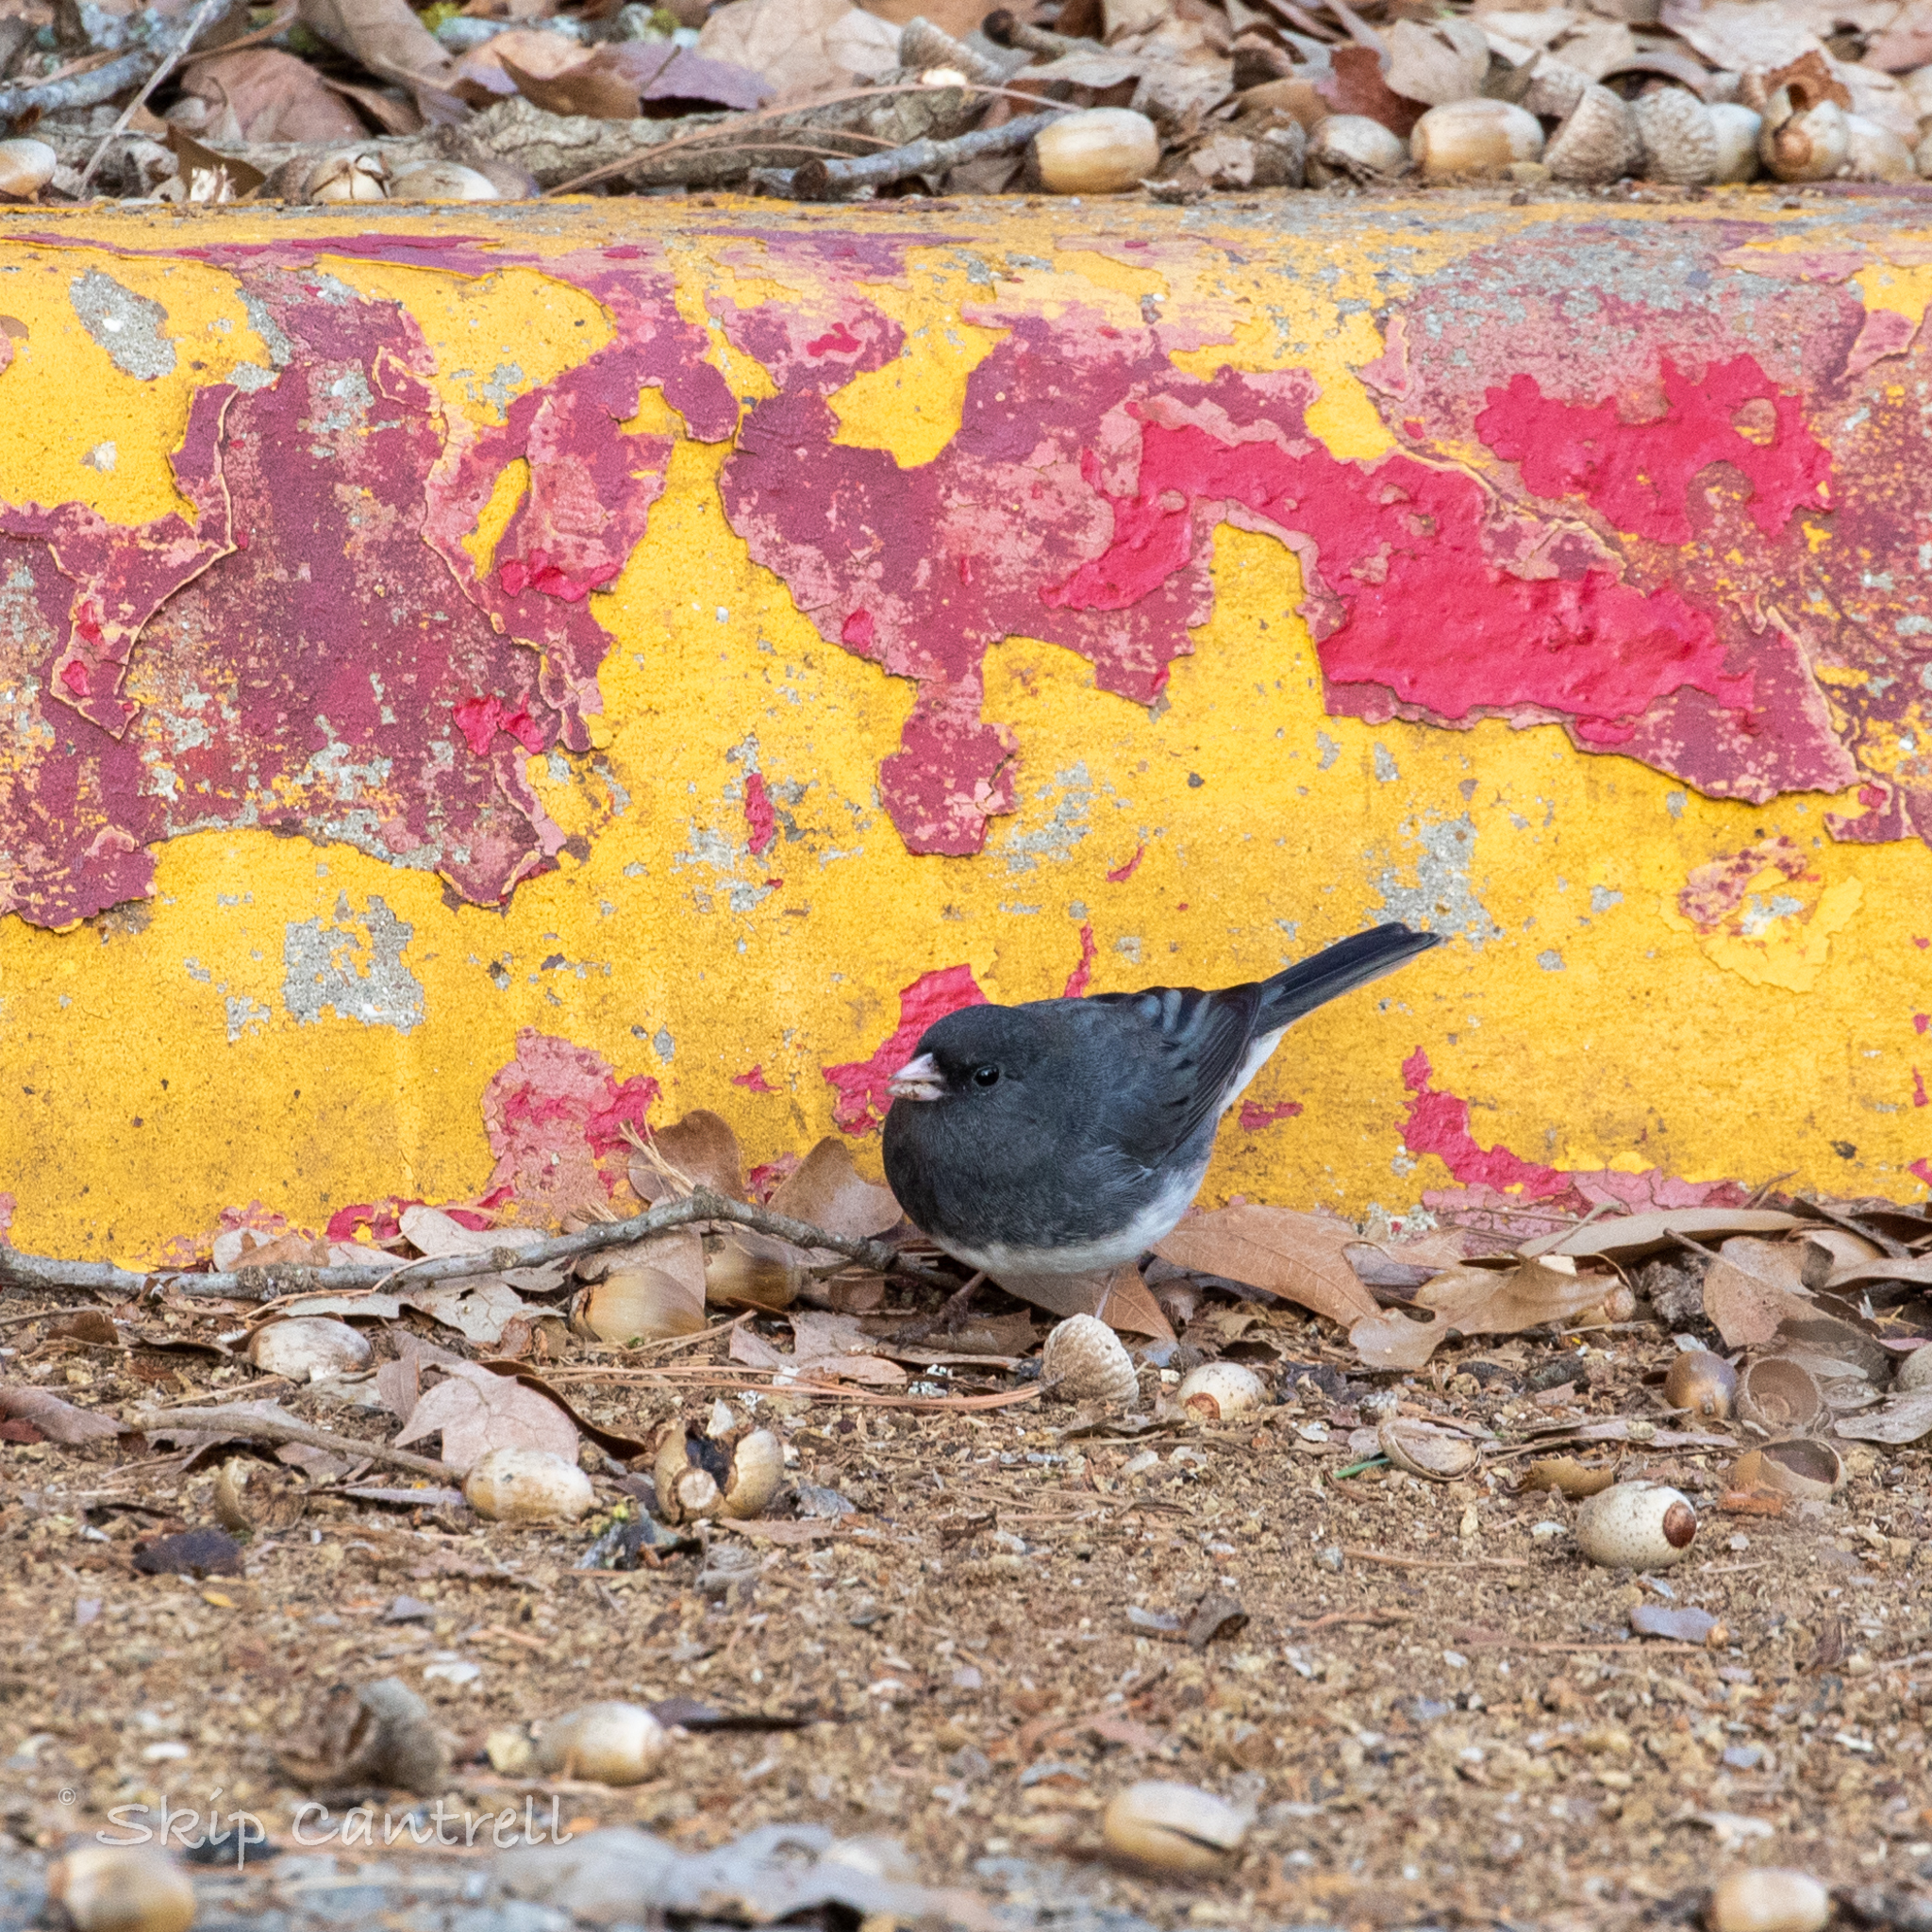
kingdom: Animalia
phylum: Chordata
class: Aves
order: Passeriformes
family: Passerellidae
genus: Junco
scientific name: Junco hyemalis
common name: Dark-eyed junco
